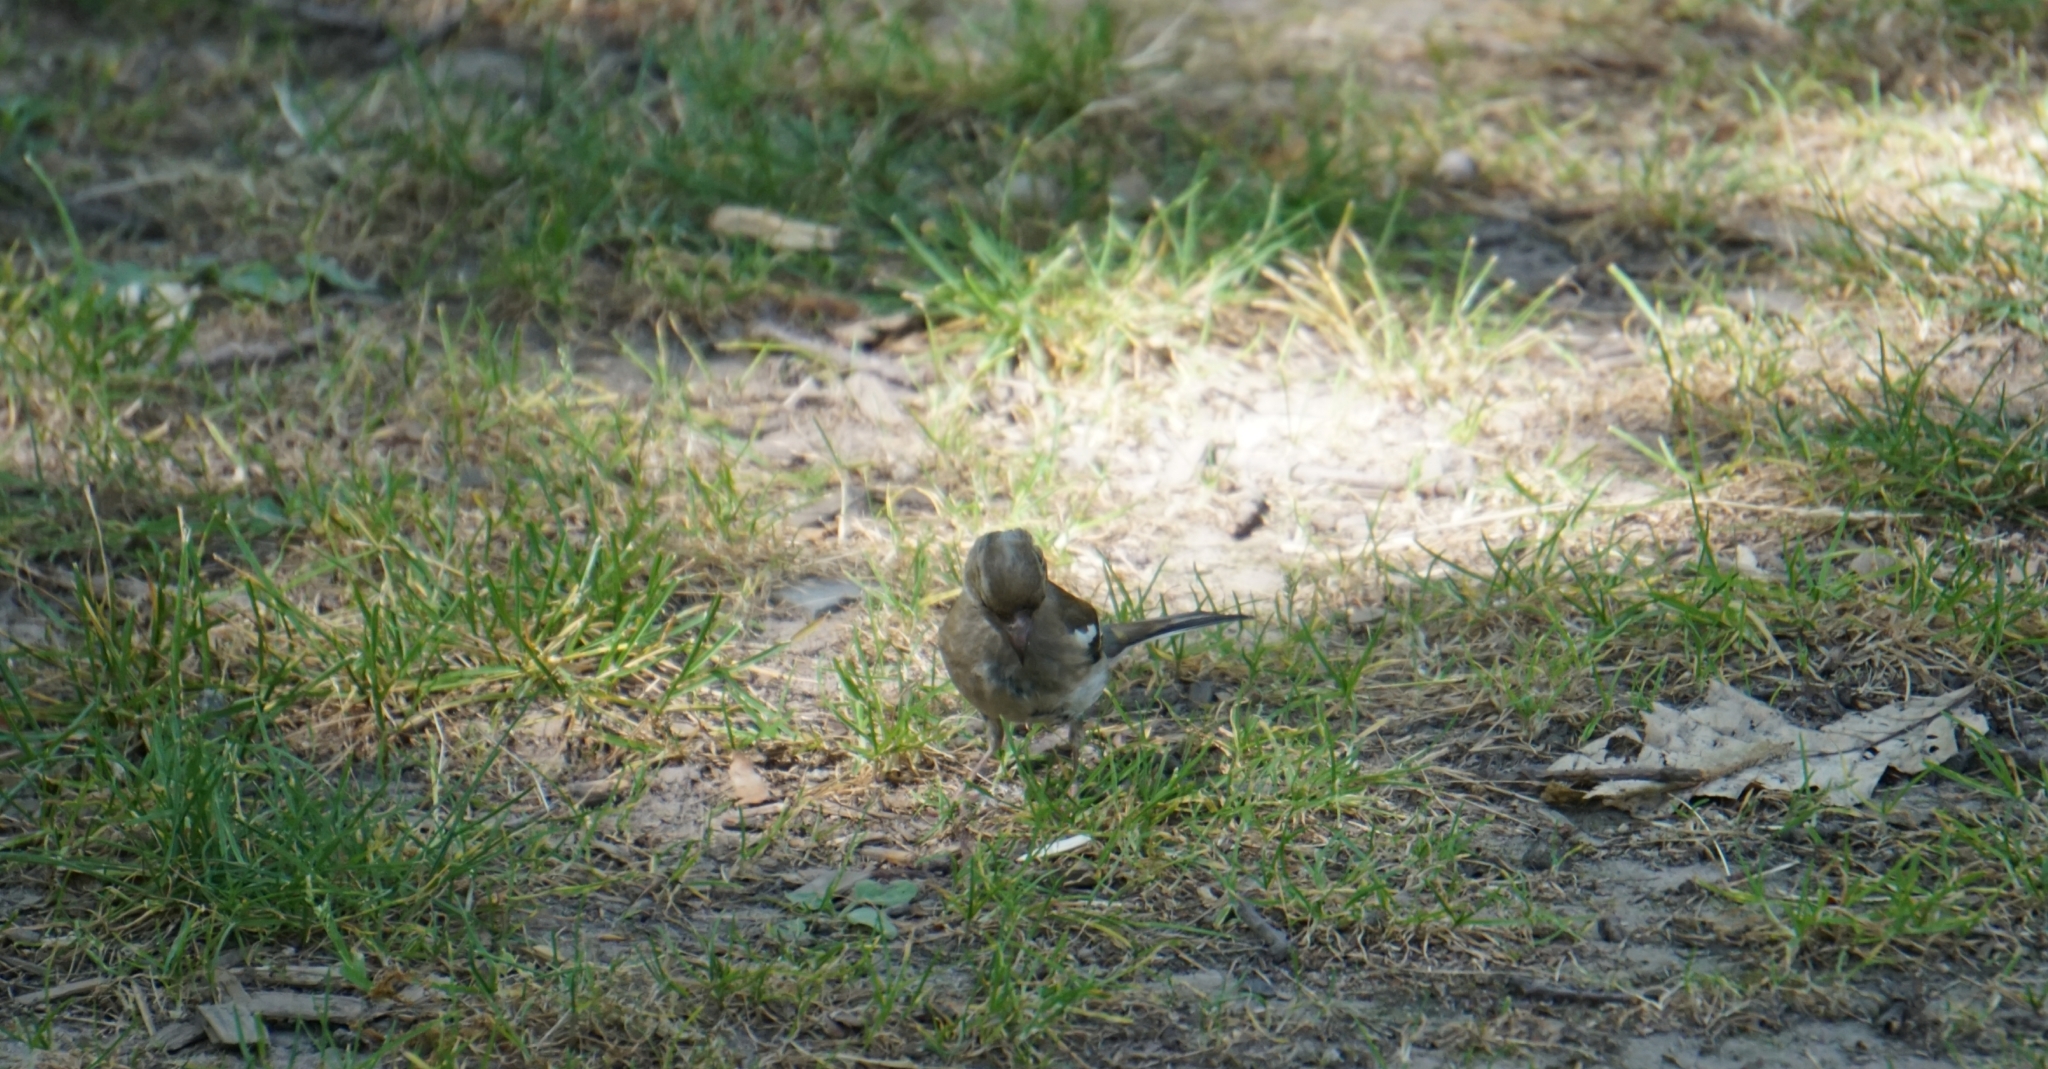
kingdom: Animalia
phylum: Chordata
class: Aves
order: Passeriformes
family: Fringillidae
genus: Fringilla
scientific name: Fringilla coelebs
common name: Common chaffinch
